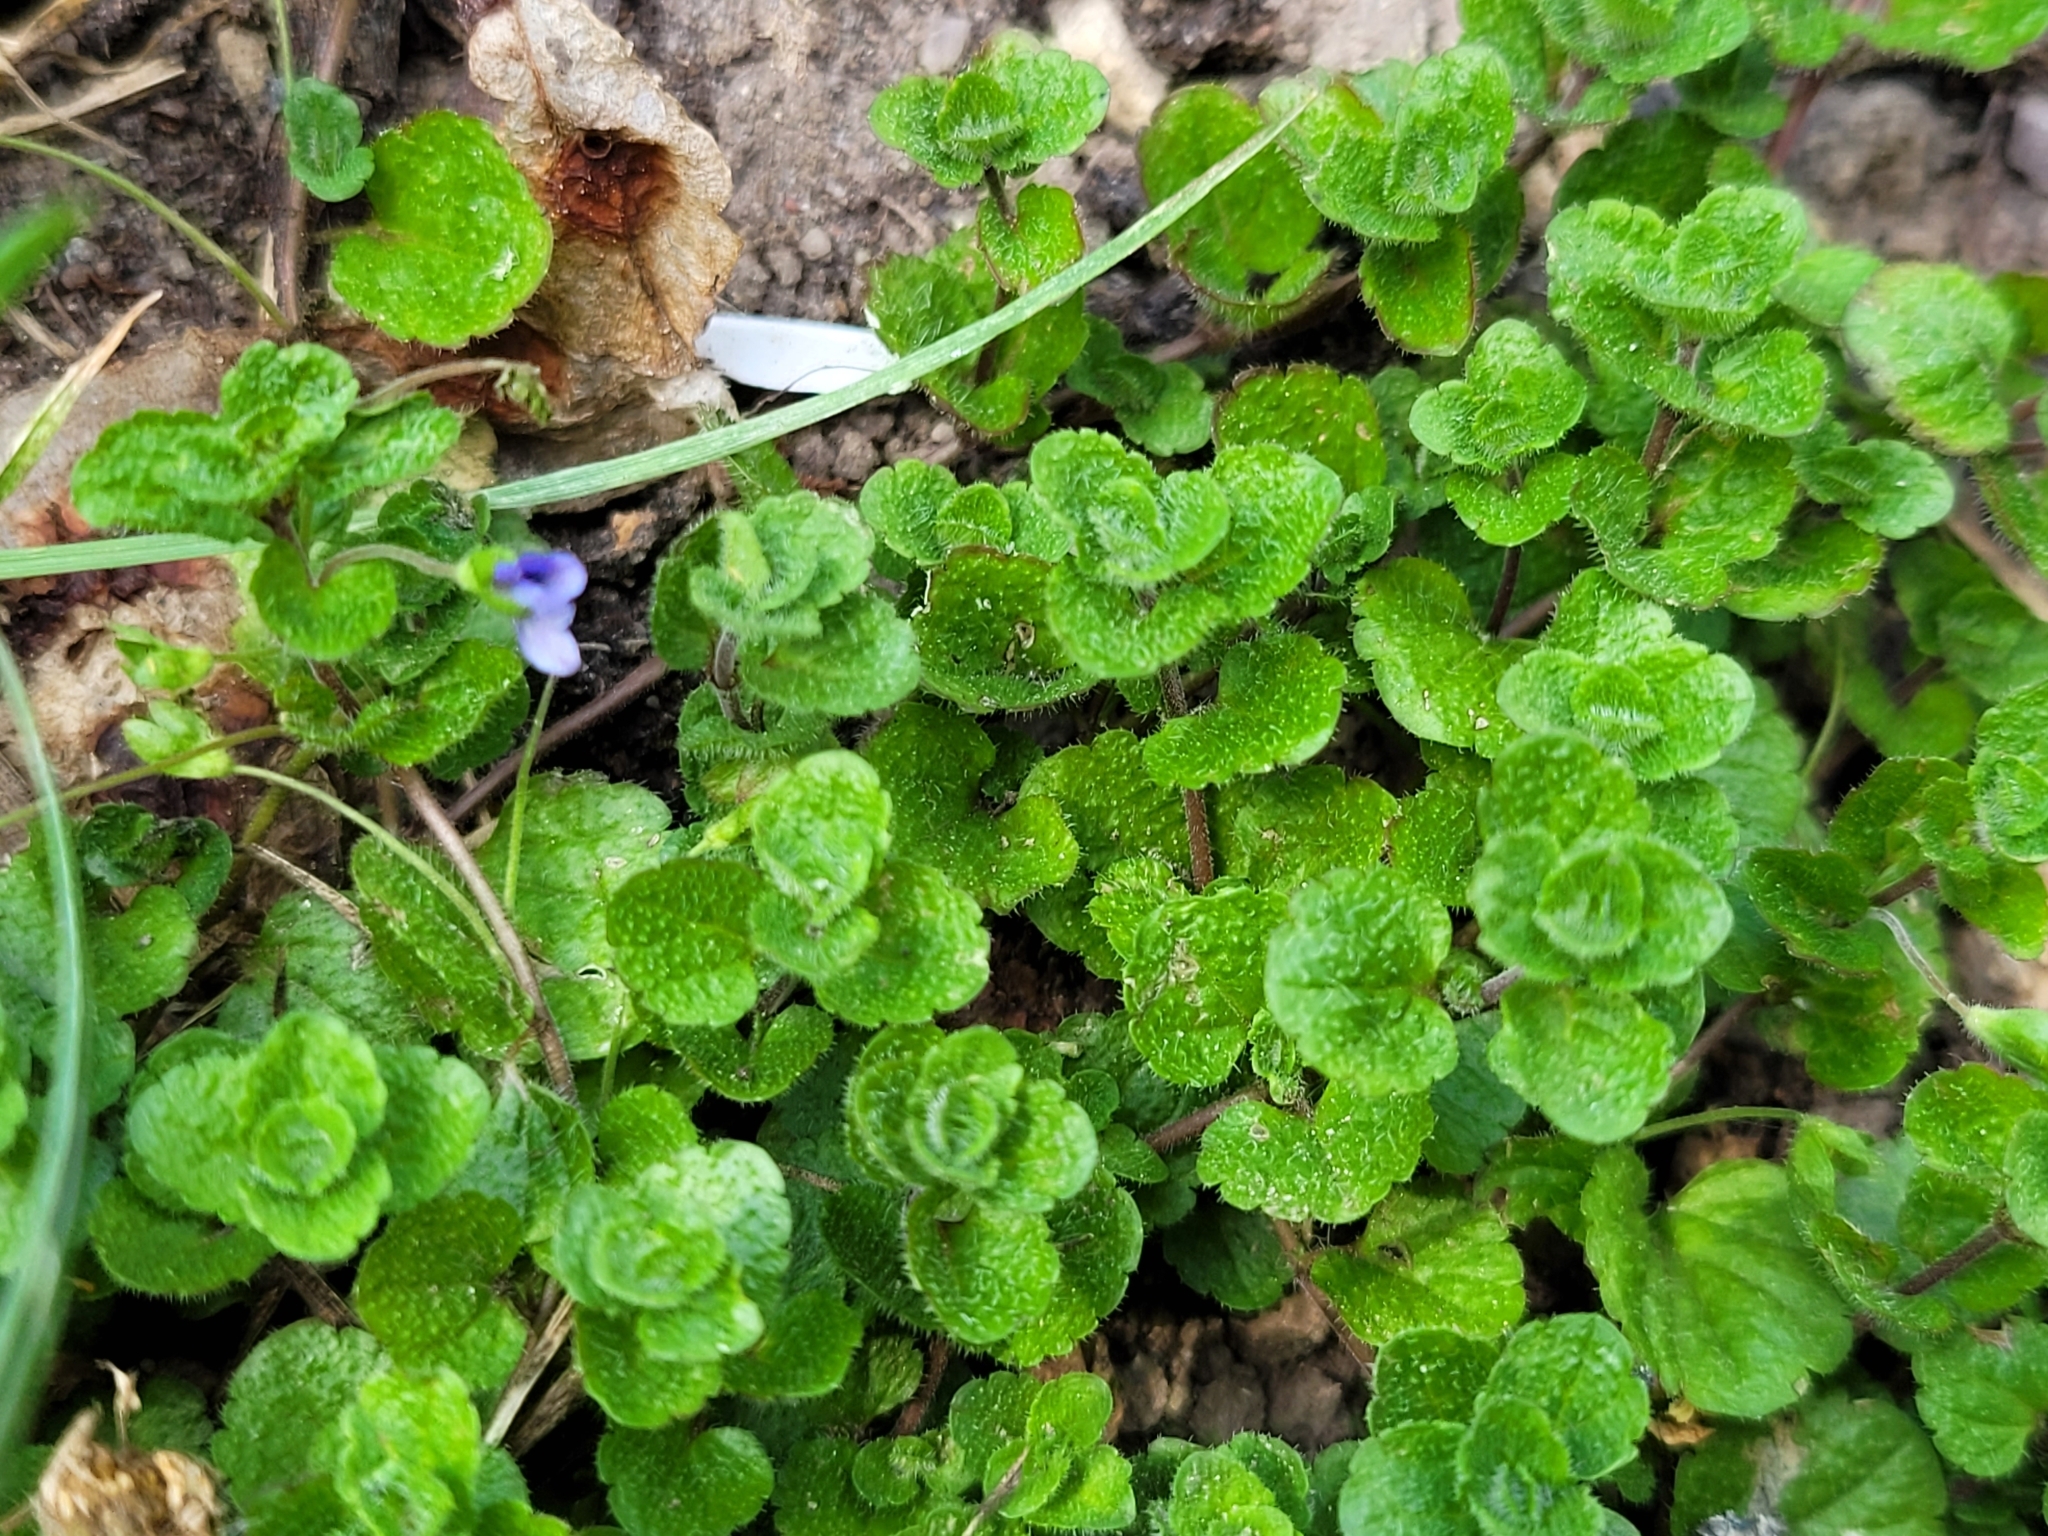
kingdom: Plantae
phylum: Tracheophyta
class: Magnoliopsida
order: Lamiales
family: Plantaginaceae
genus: Veronica
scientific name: Veronica filiformis
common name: Slender speedwell
